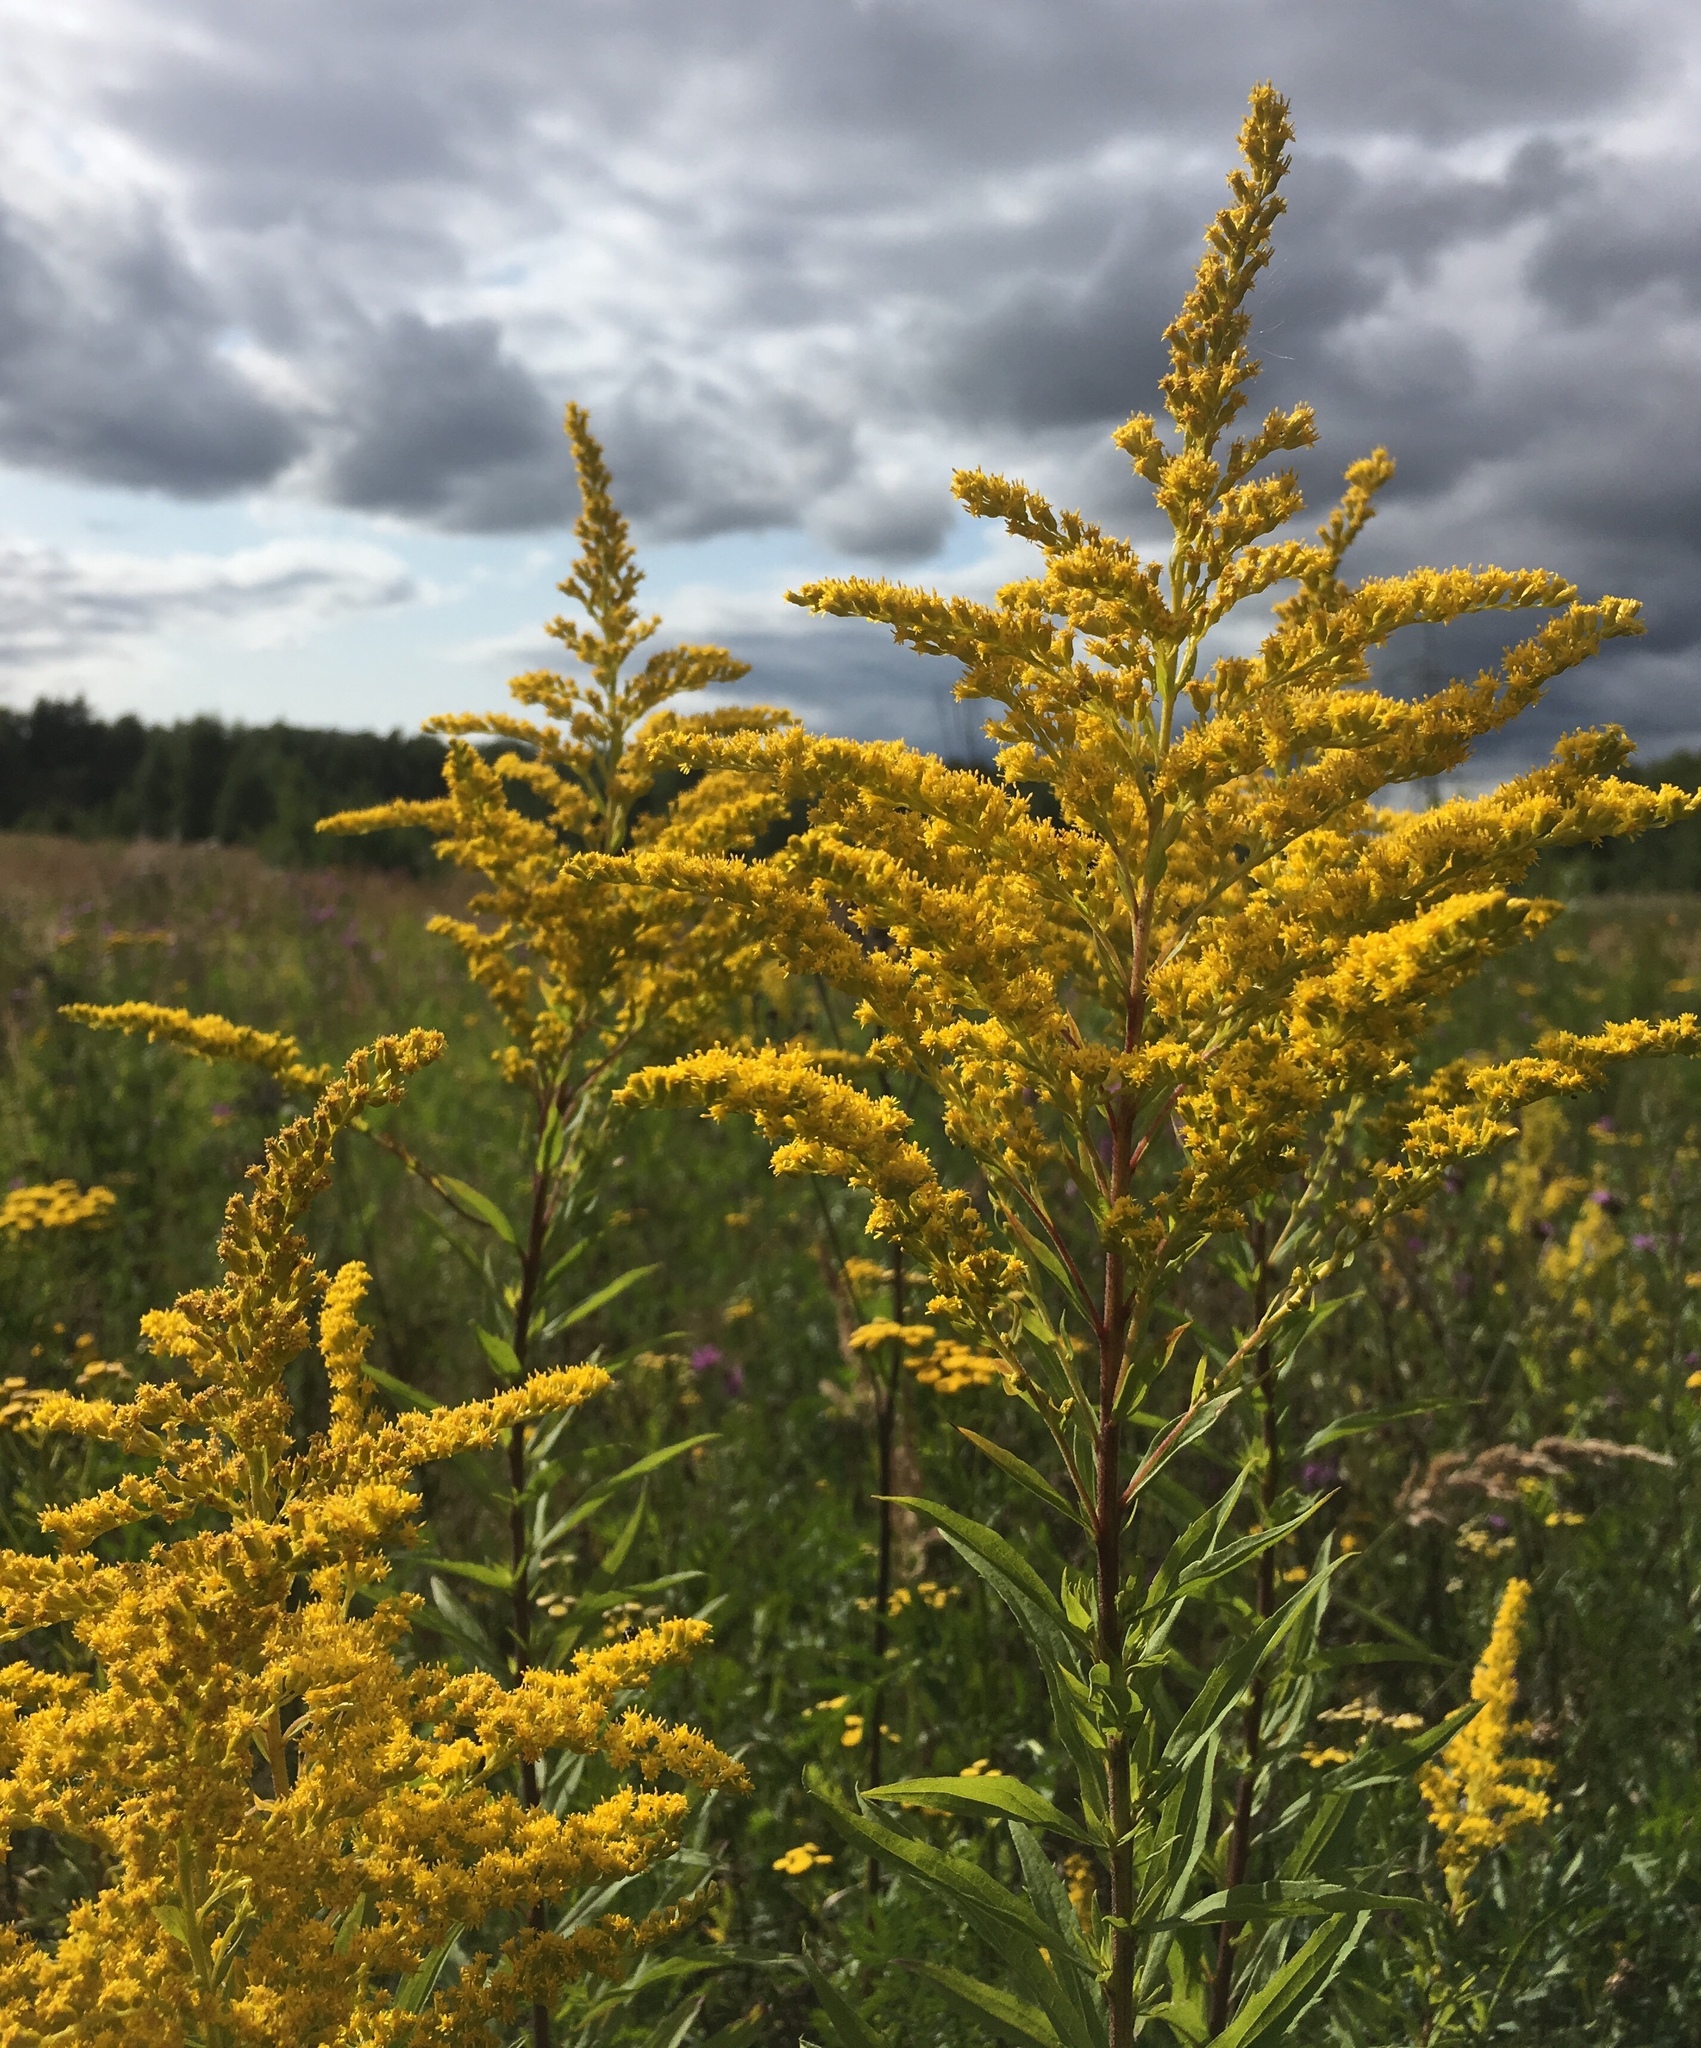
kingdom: Plantae
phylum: Tracheophyta
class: Magnoliopsida
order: Asterales
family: Asteraceae
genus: Solidago
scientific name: Solidago canadensis
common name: Canada goldenrod
